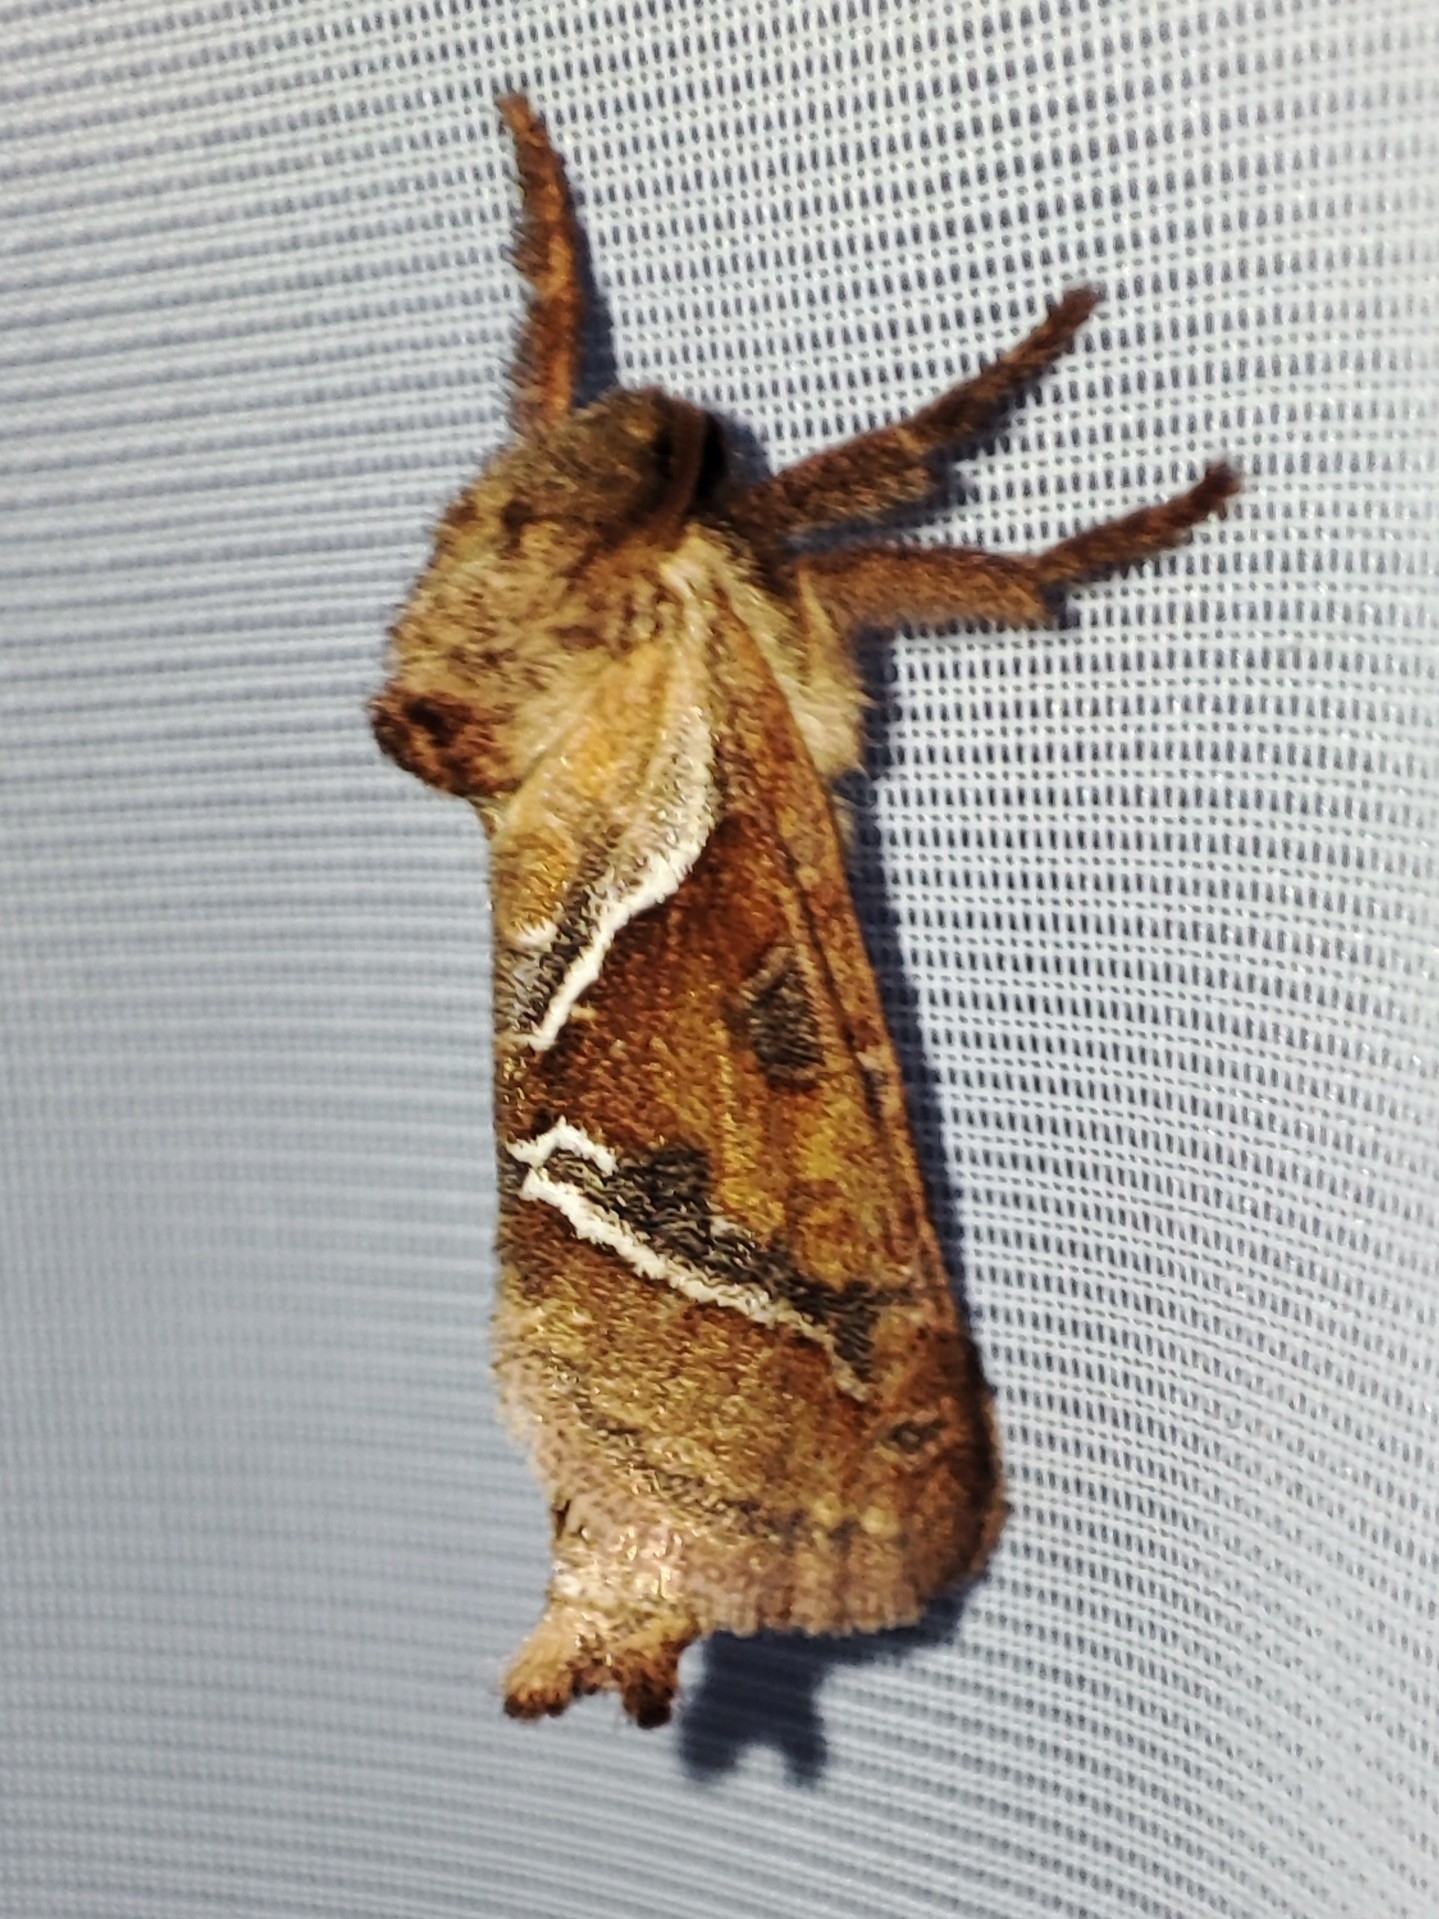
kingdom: Animalia
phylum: Arthropoda
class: Insecta
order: Lepidoptera
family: Hepialidae
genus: Triodia
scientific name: Triodia sylvina
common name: Orange swift
